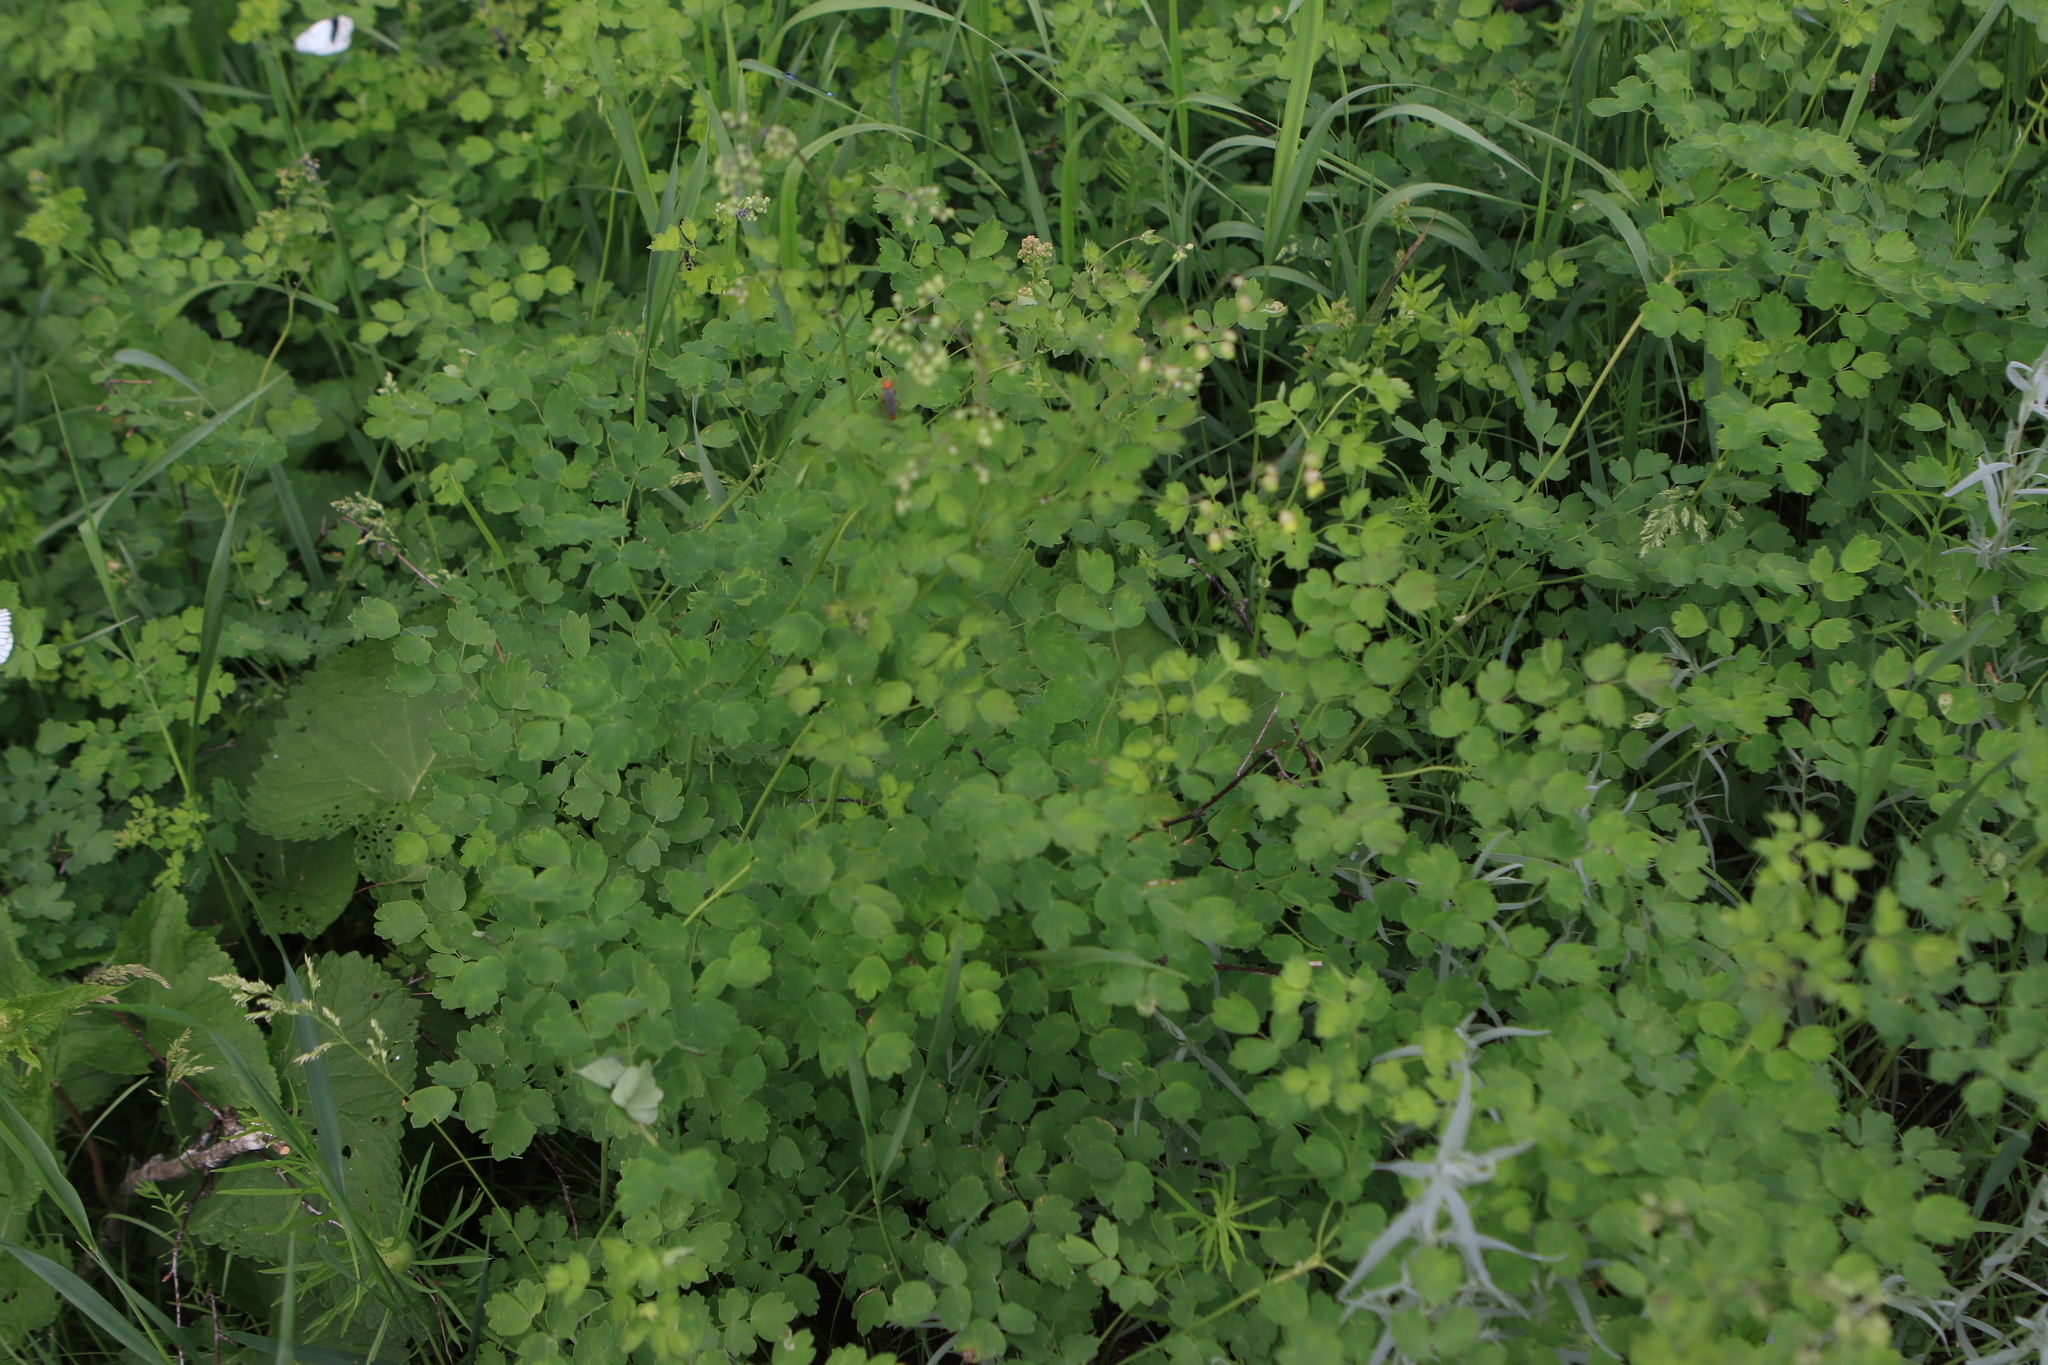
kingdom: Plantae
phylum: Tracheophyta
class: Magnoliopsida
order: Ranunculales
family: Ranunculaceae
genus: Thalictrum
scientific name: Thalictrum minus
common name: Lesser meadow-rue
